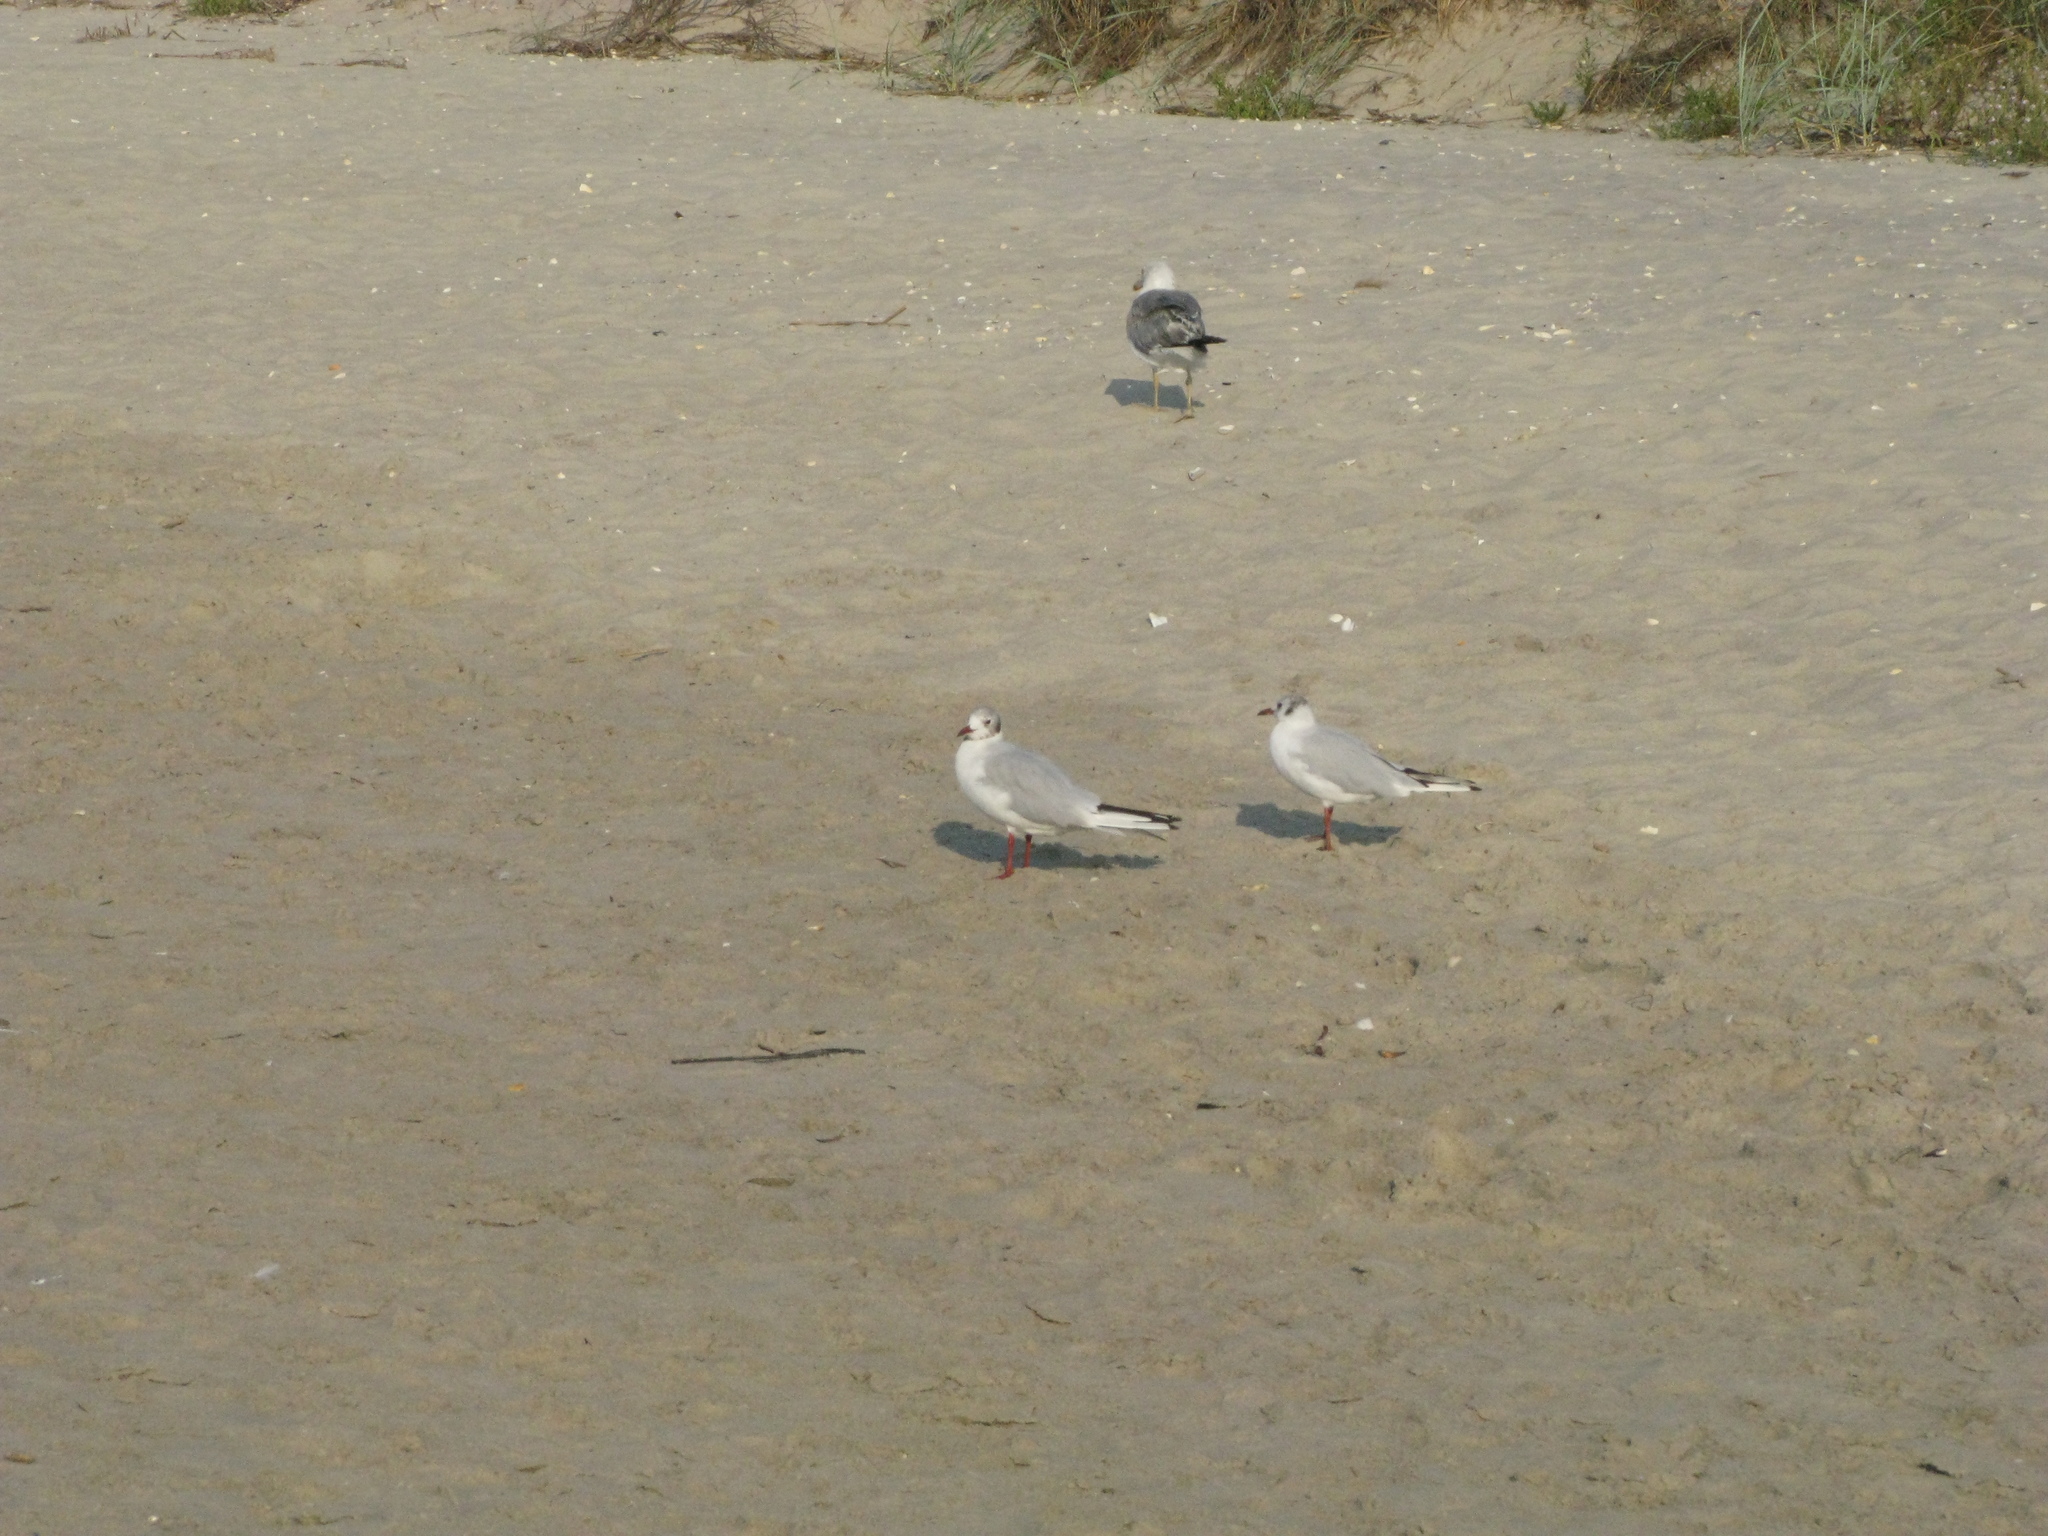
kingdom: Animalia
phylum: Chordata
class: Aves
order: Charadriiformes
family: Laridae
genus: Chroicocephalus
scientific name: Chroicocephalus ridibundus
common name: Black-headed gull
